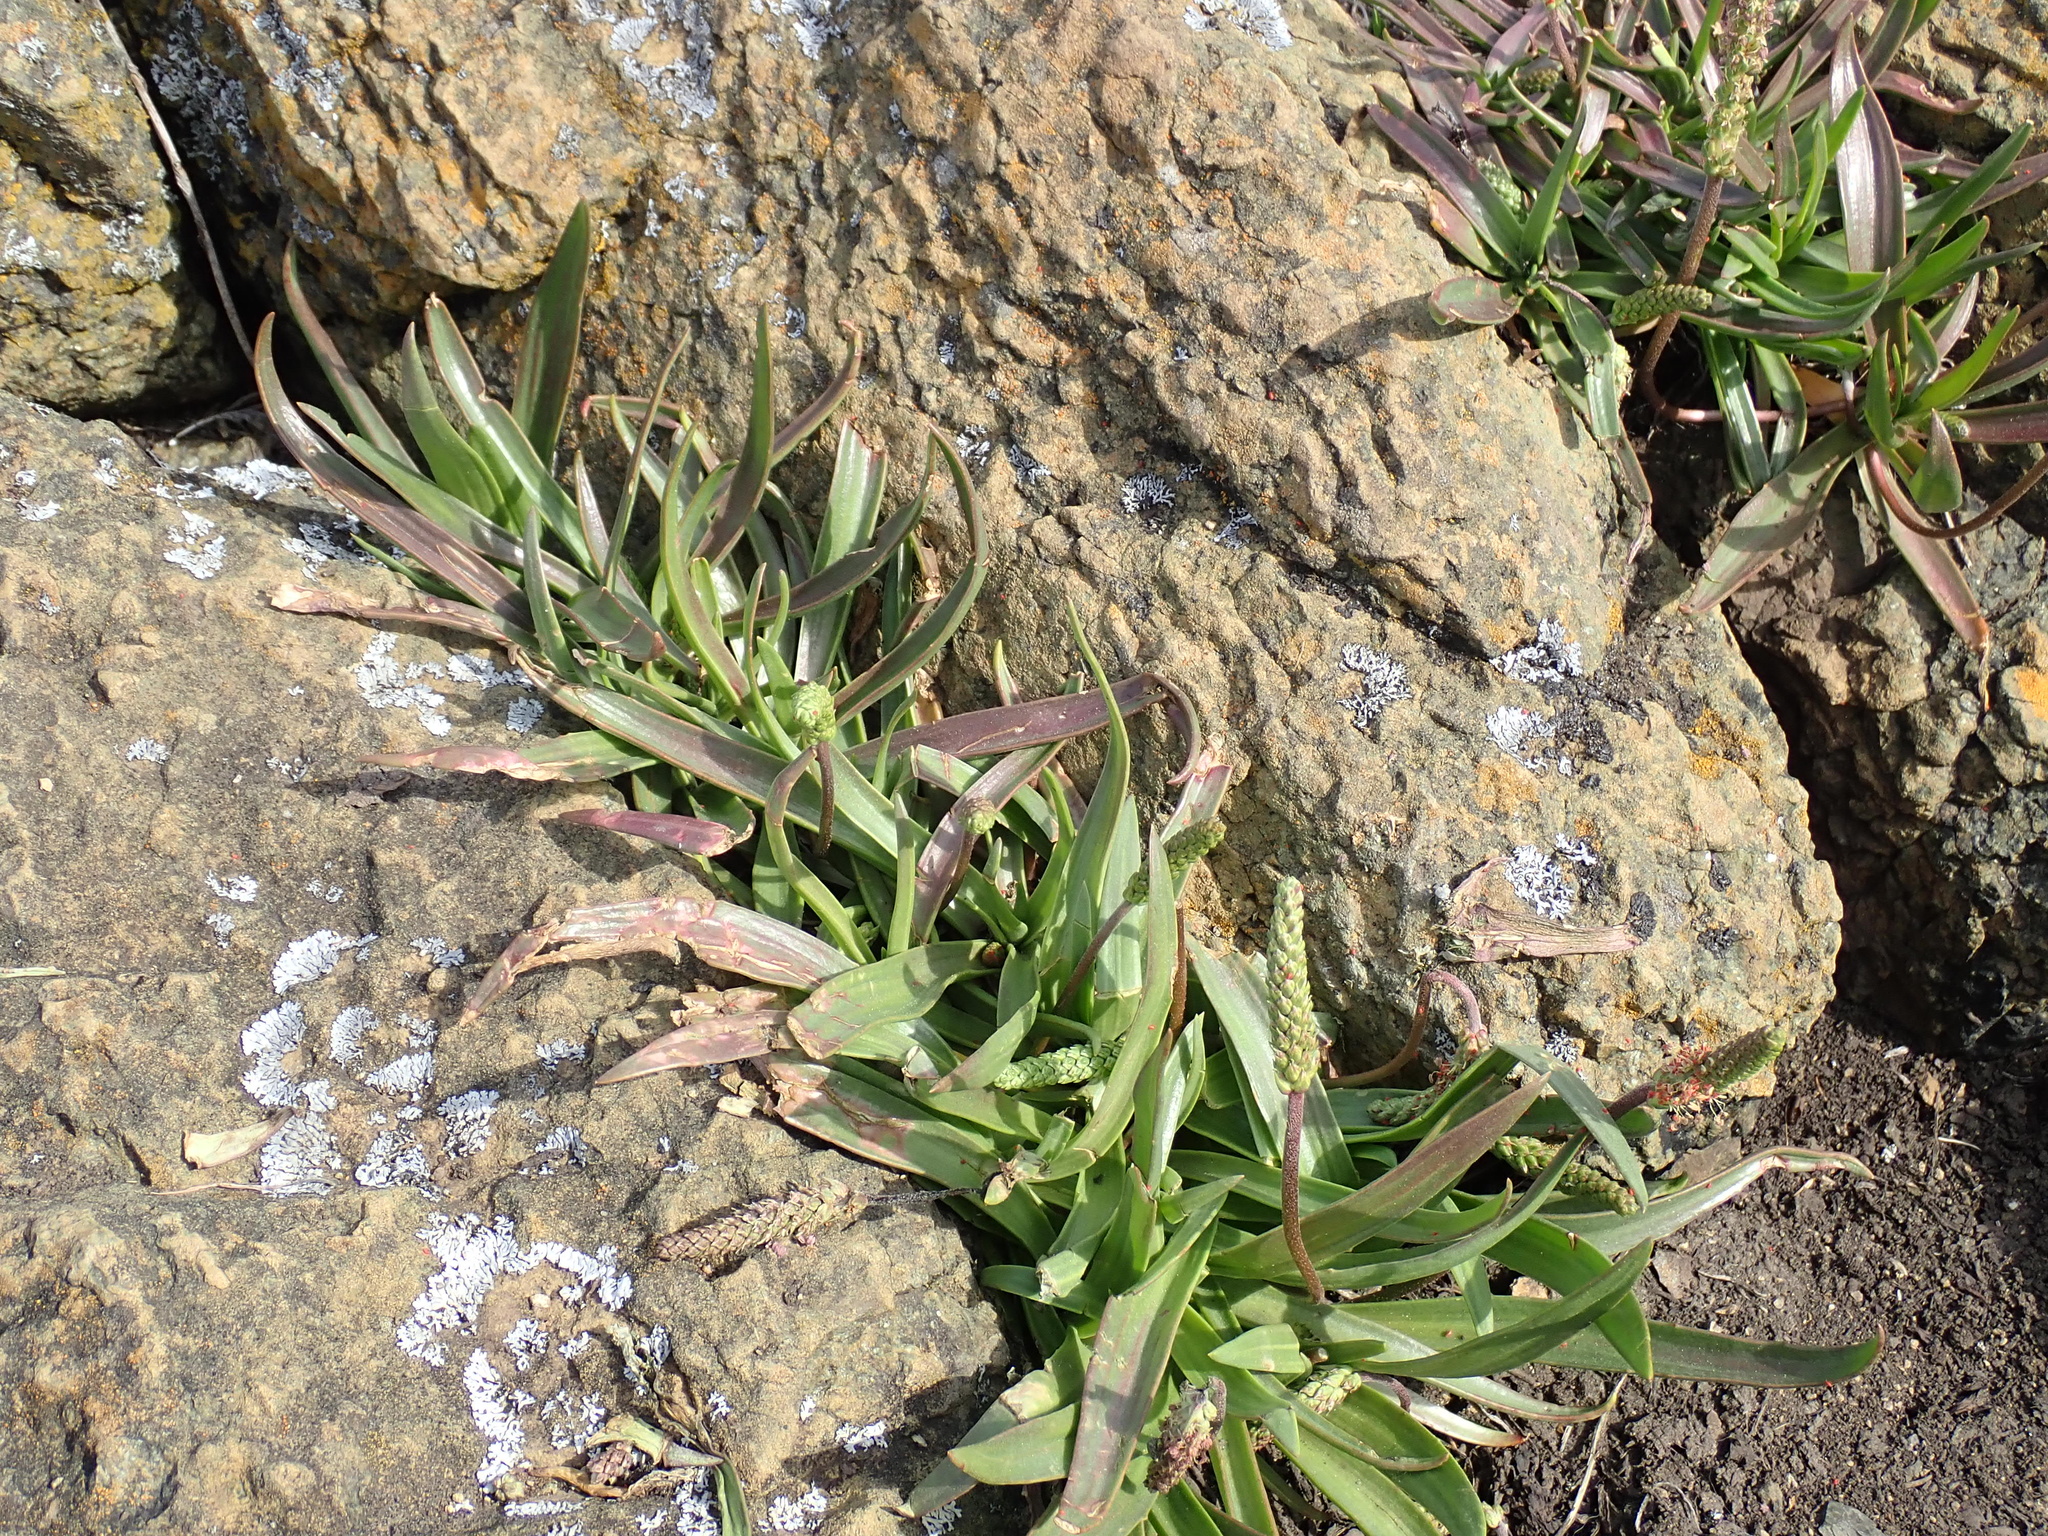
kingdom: Plantae
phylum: Tracheophyta
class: Magnoliopsida
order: Lamiales
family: Plantaginaceae
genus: Plantago
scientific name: Plantago maritima
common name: Sea plantain
